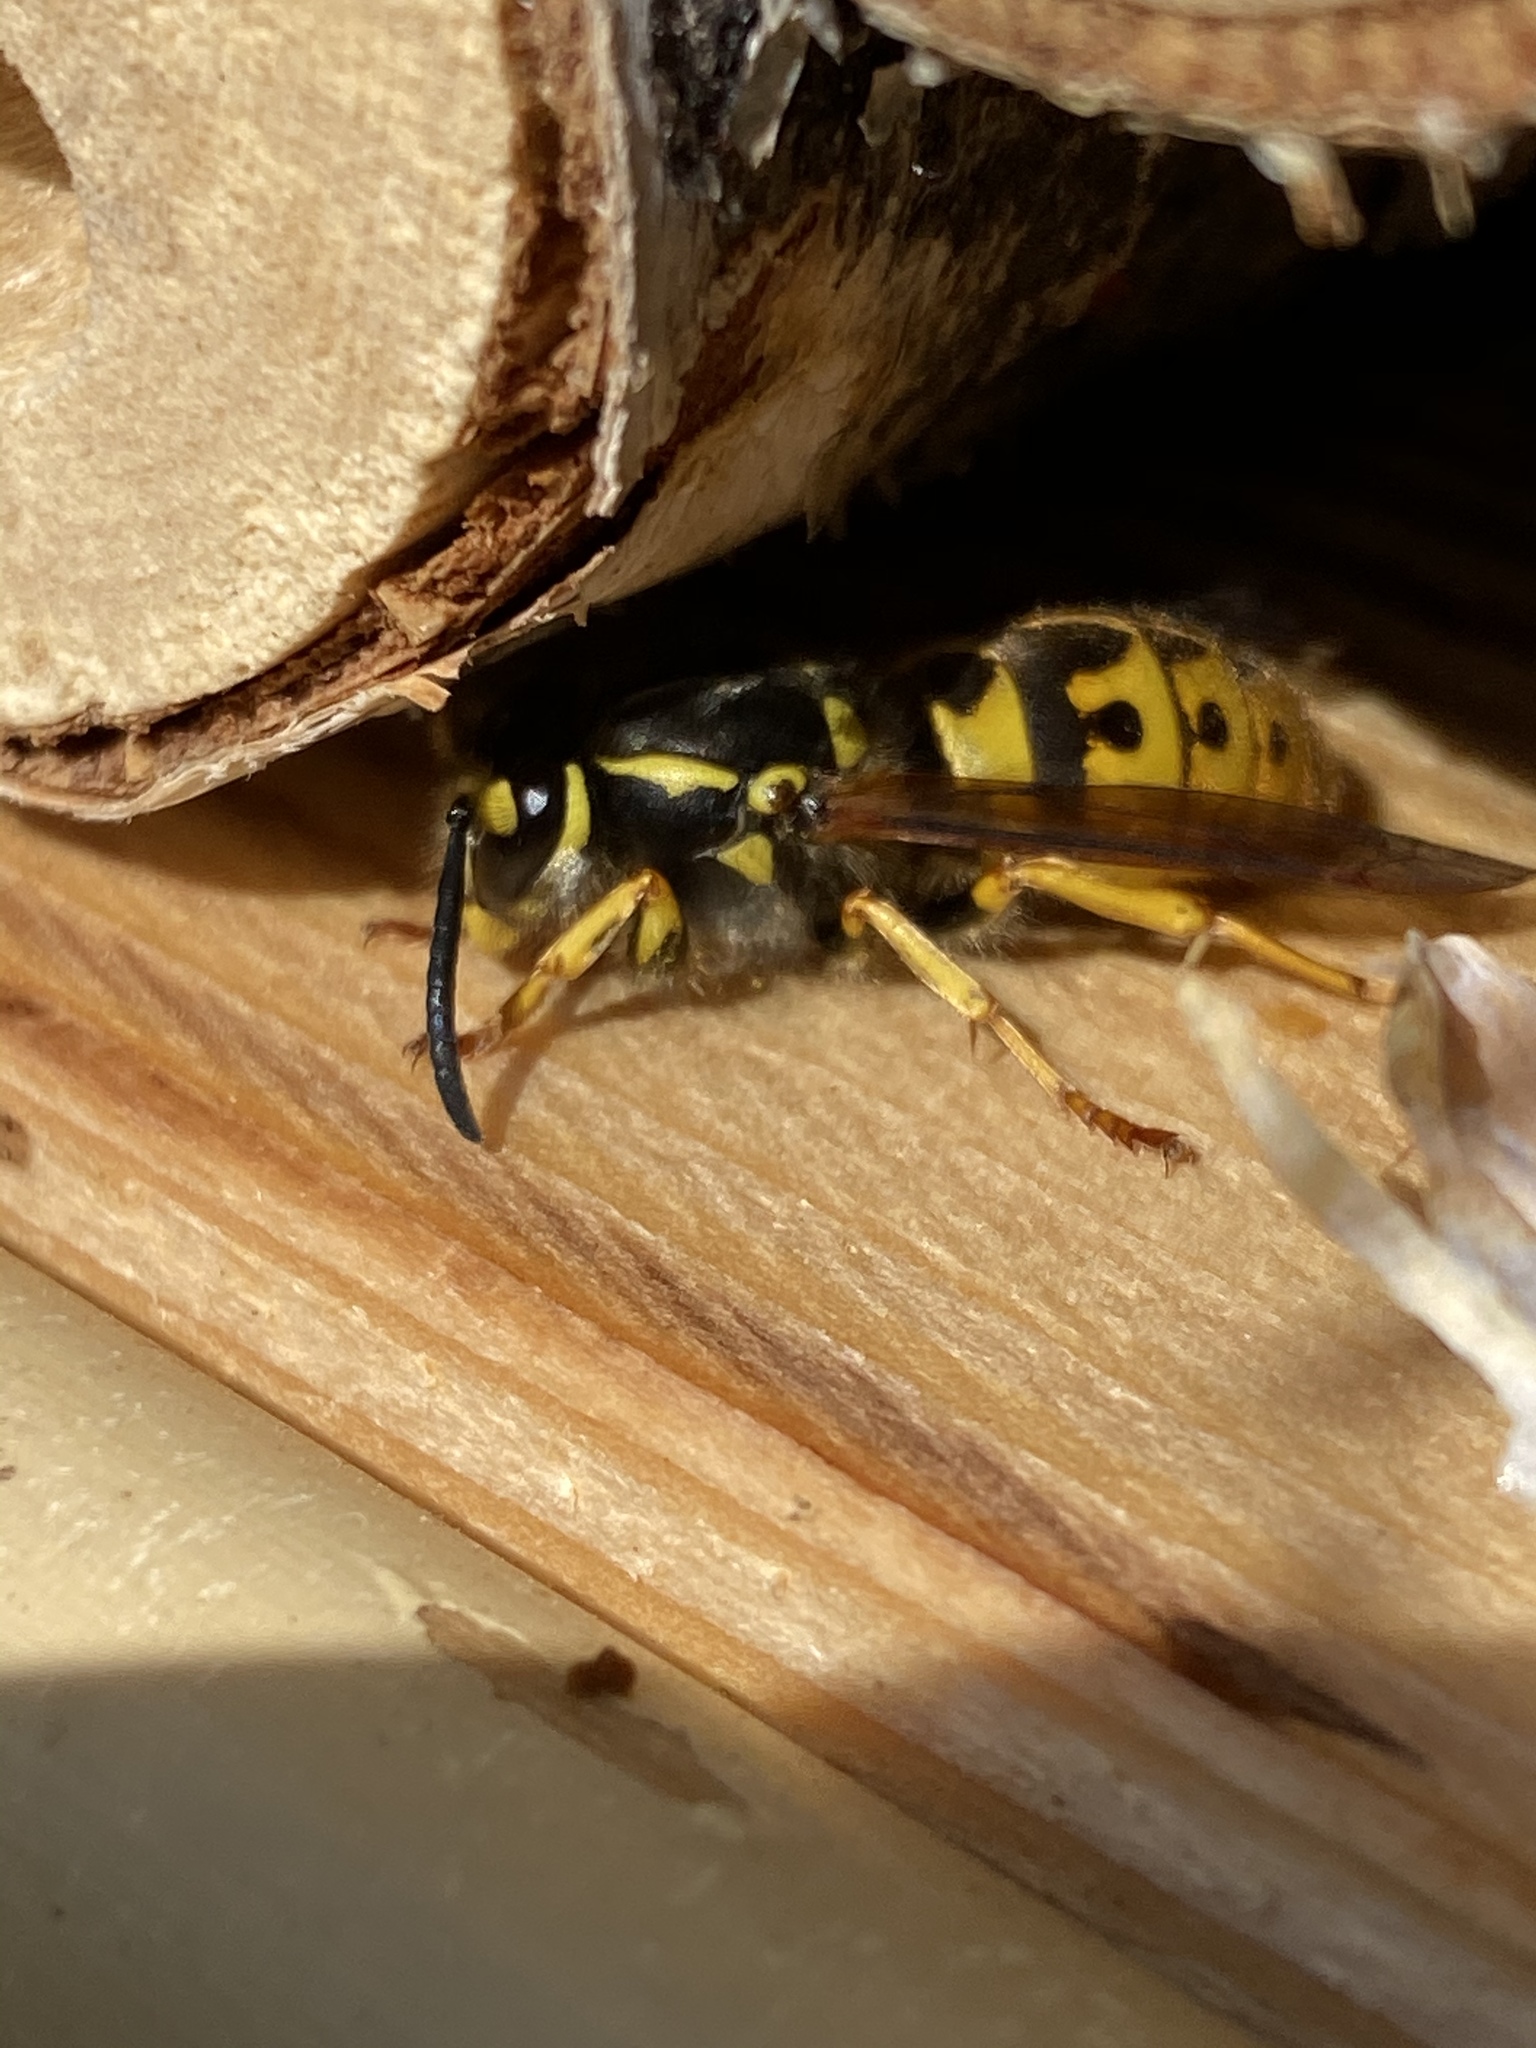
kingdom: Animalia
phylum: Arthropoda
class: Insecta
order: Hymenoptera
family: Vespidae
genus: Vespula
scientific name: Vespula germanica
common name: German wasp
